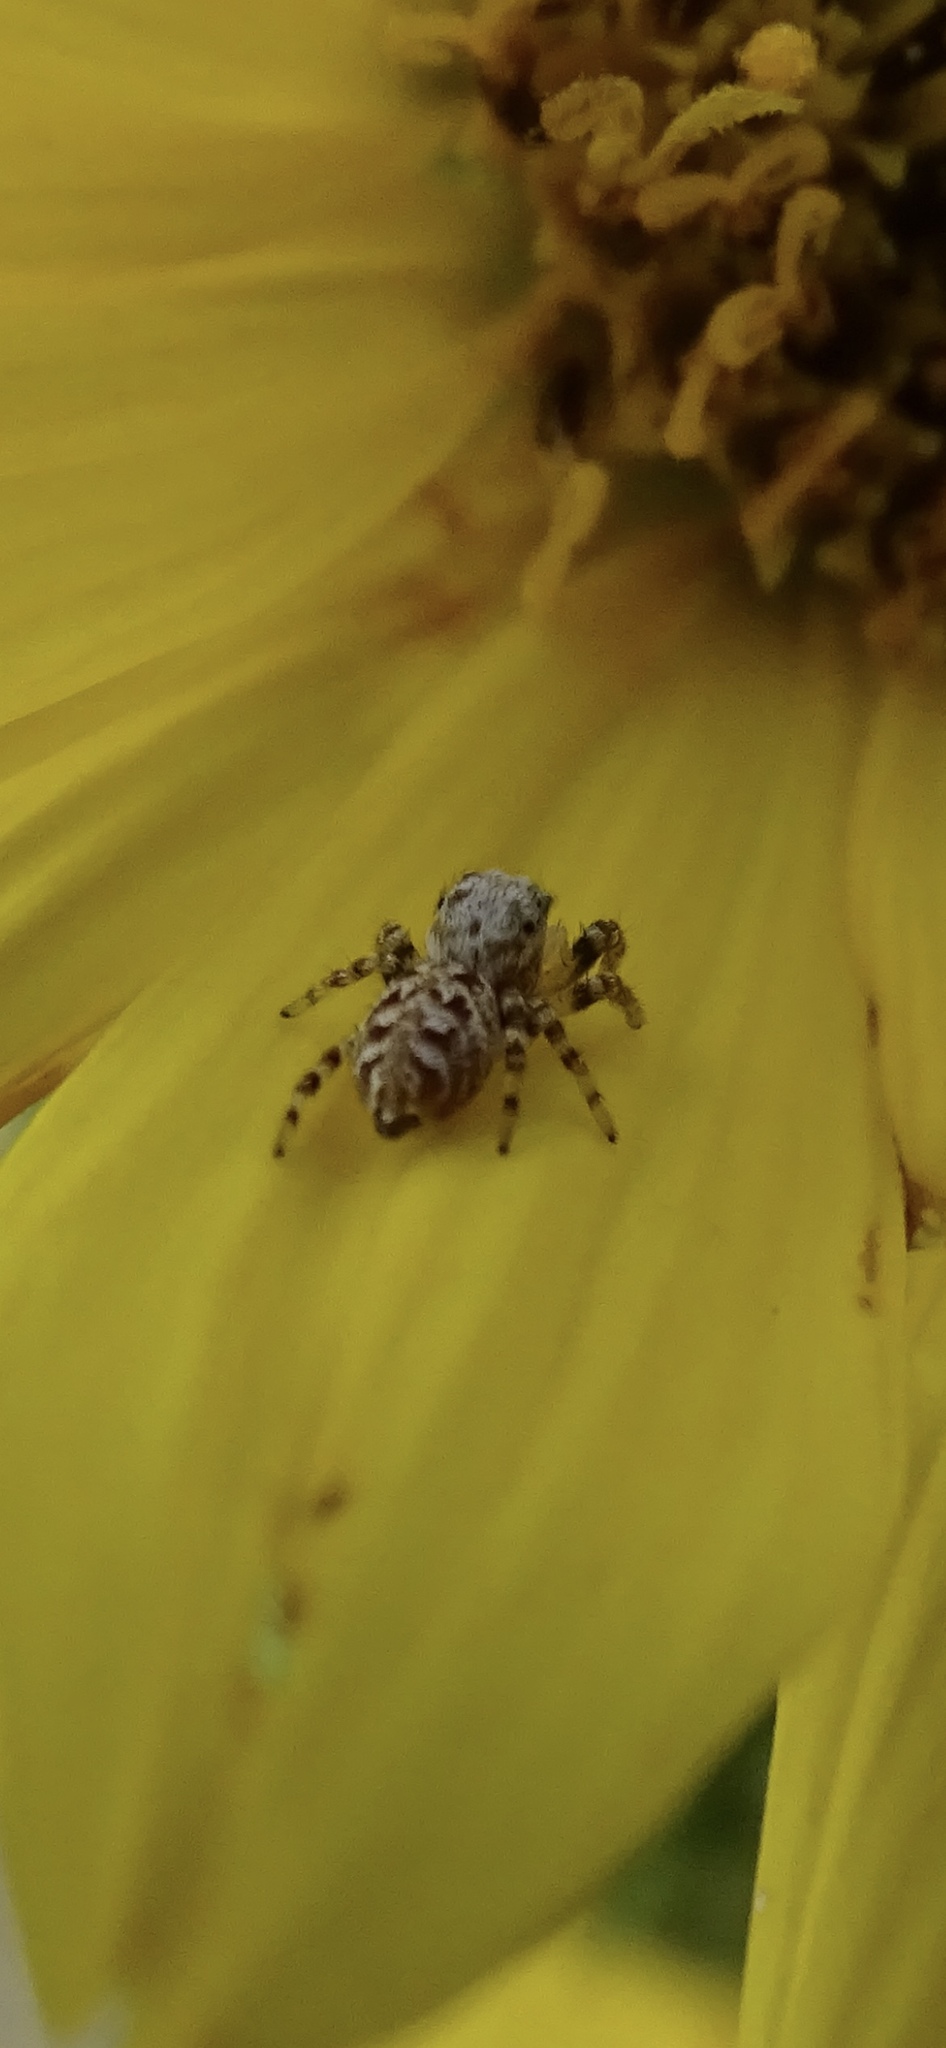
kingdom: Animalia
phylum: Arthropoda
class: Arachnida
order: Araneae
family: Salticidae
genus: Pelegrina
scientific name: Pelegrina galathea
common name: Jumping spiders
